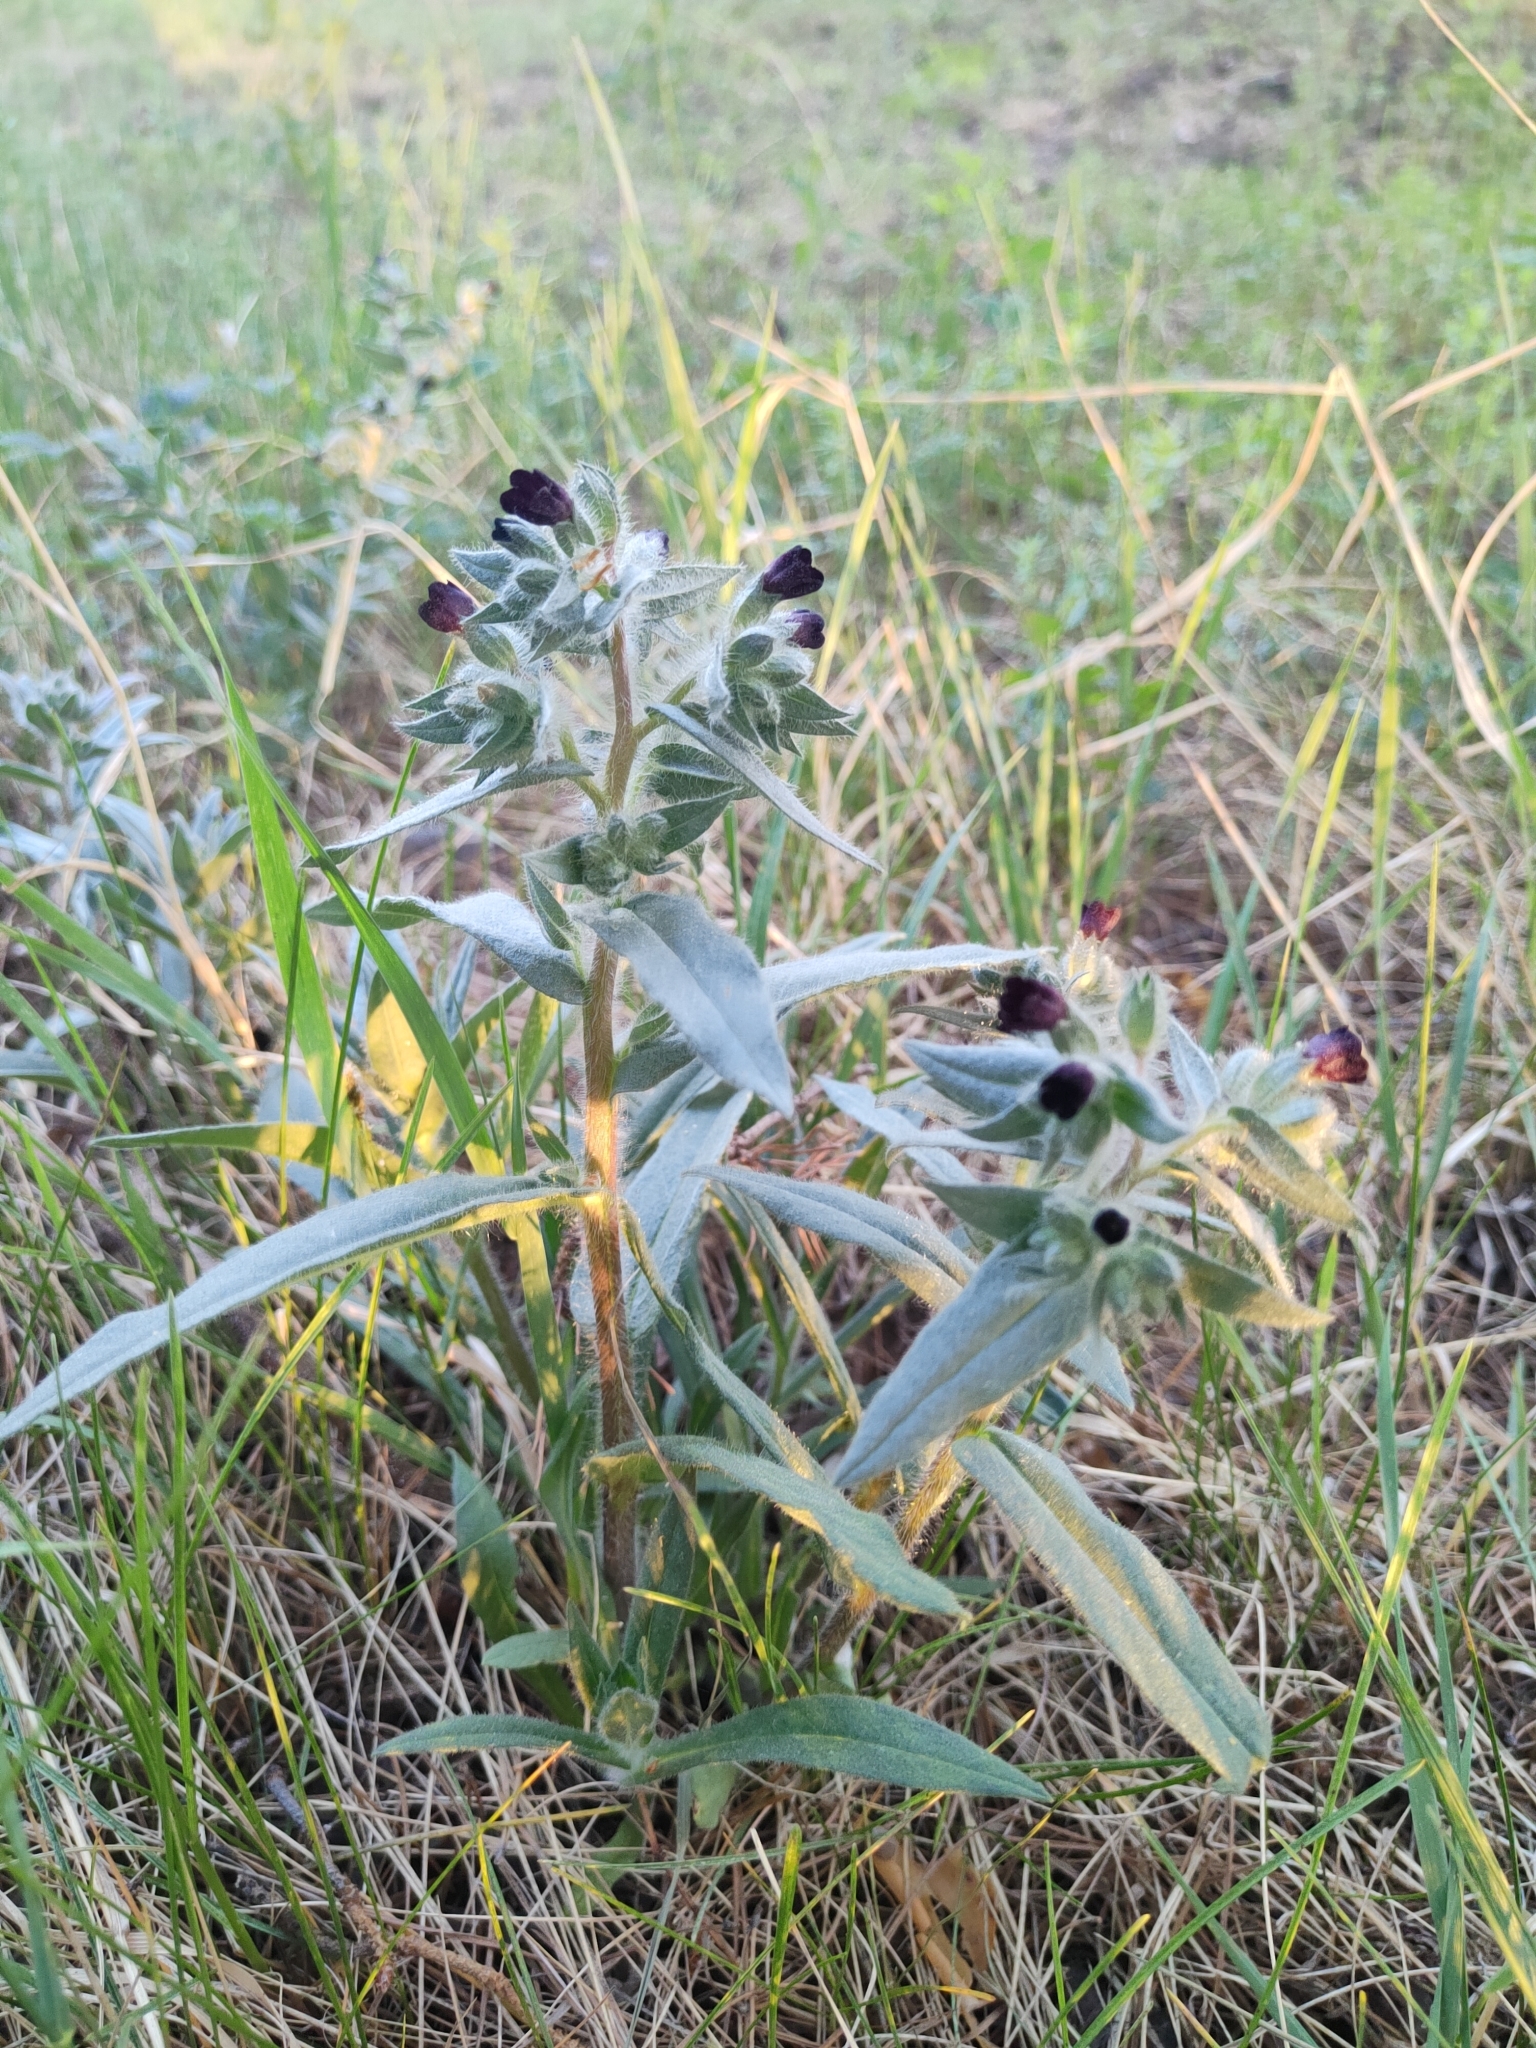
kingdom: Plantae
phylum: Tracheophyta
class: Magnoliopsida
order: Boraginales
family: Boraginaceae
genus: Nonea
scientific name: Nonea pulla
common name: Brown nonea
